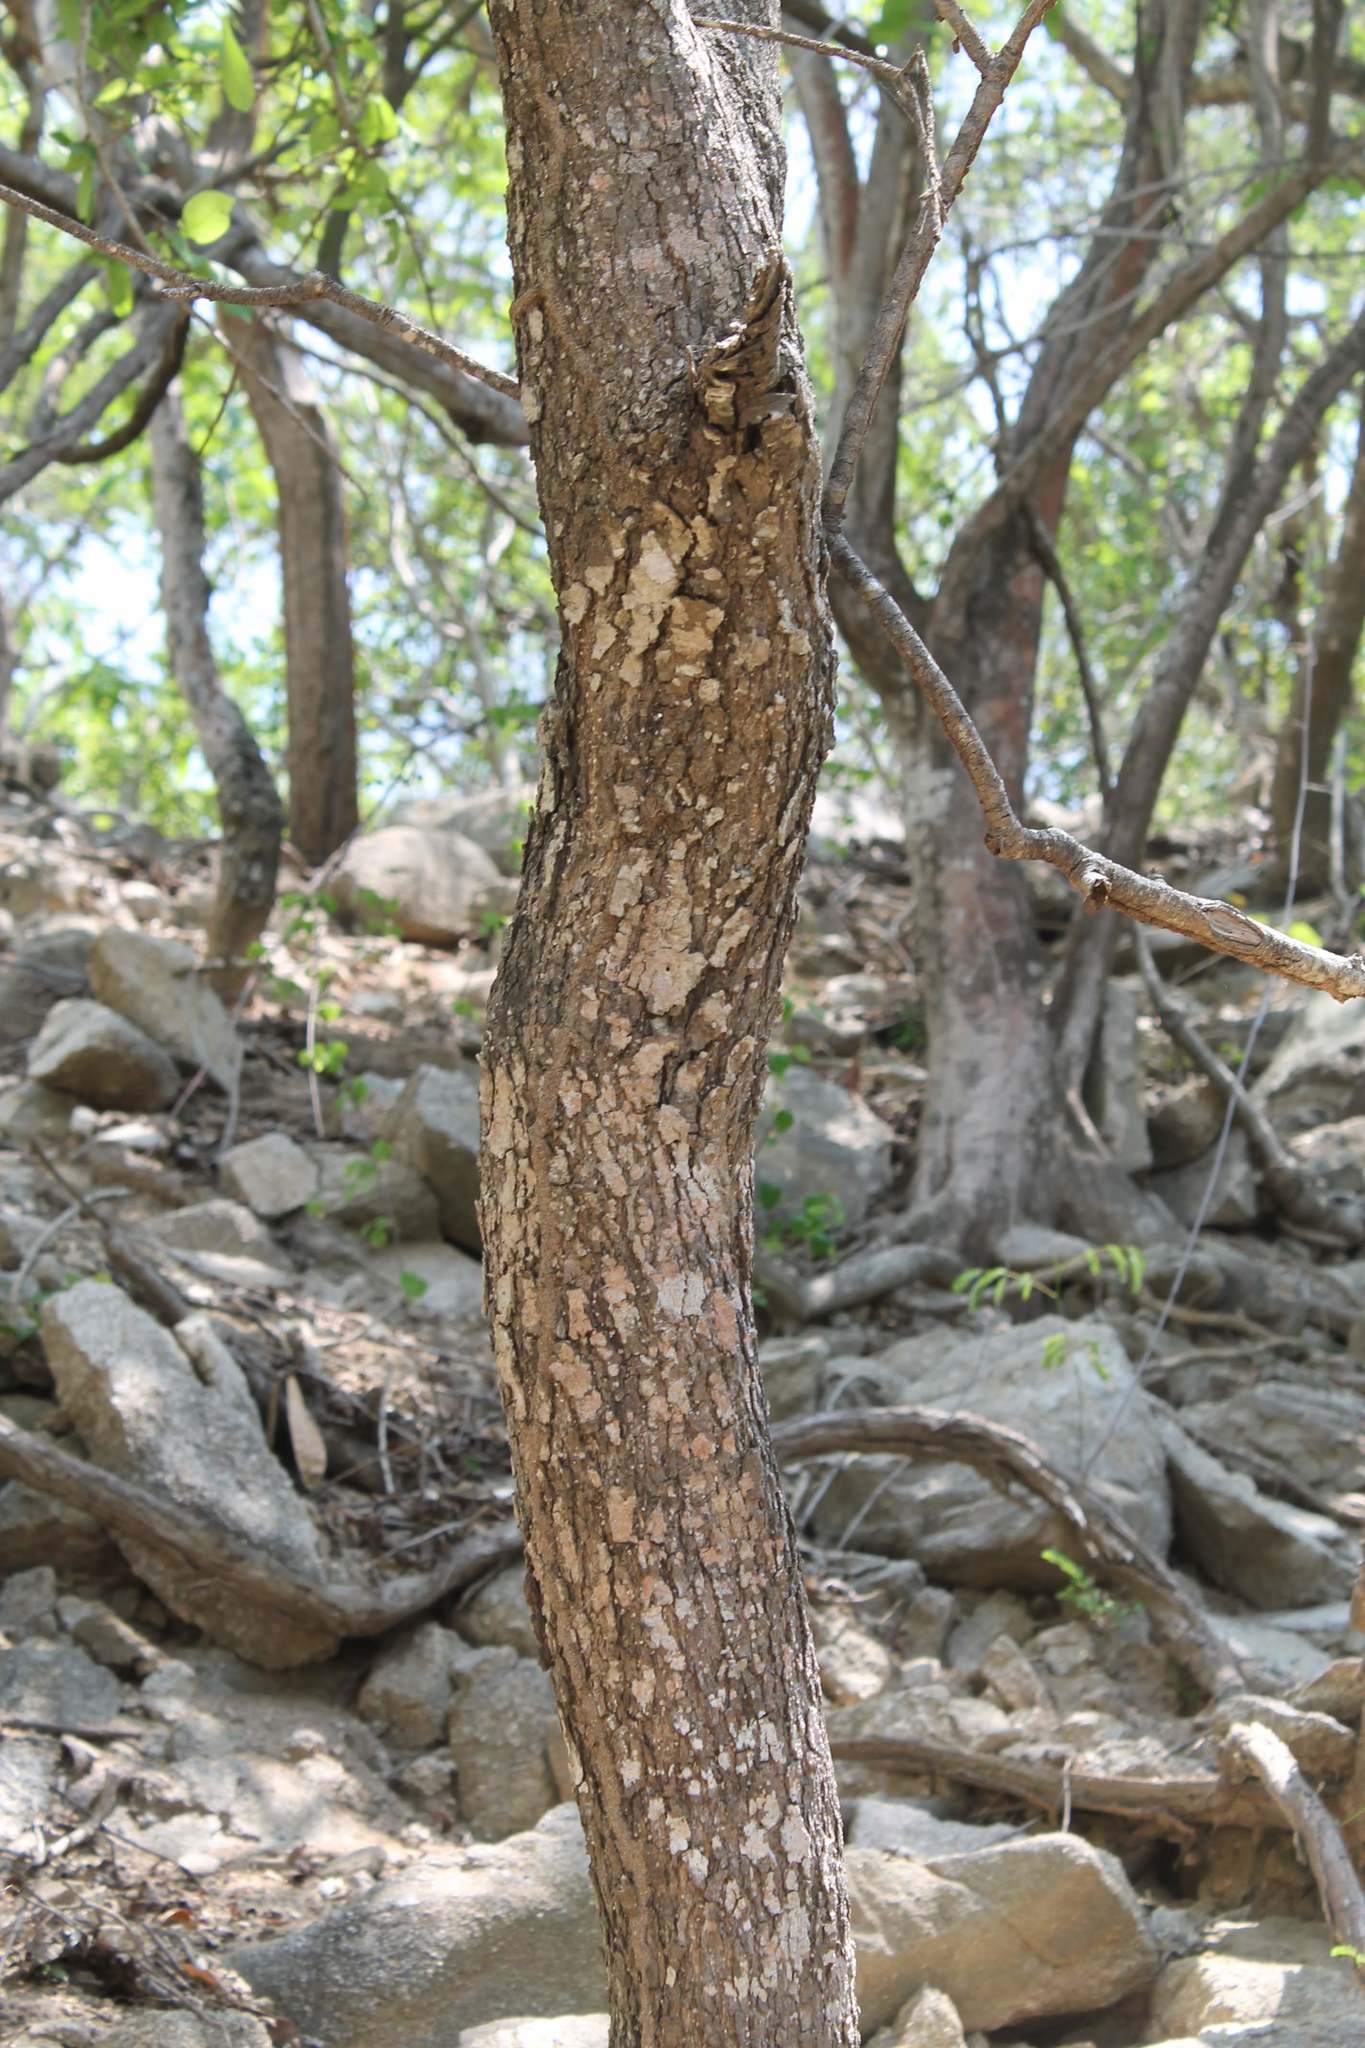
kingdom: Plantae
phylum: Tracheophyta
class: Magnoliopsida
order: Gentianales
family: Apocynaceae
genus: Cascabela
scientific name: Cascabela ovata
